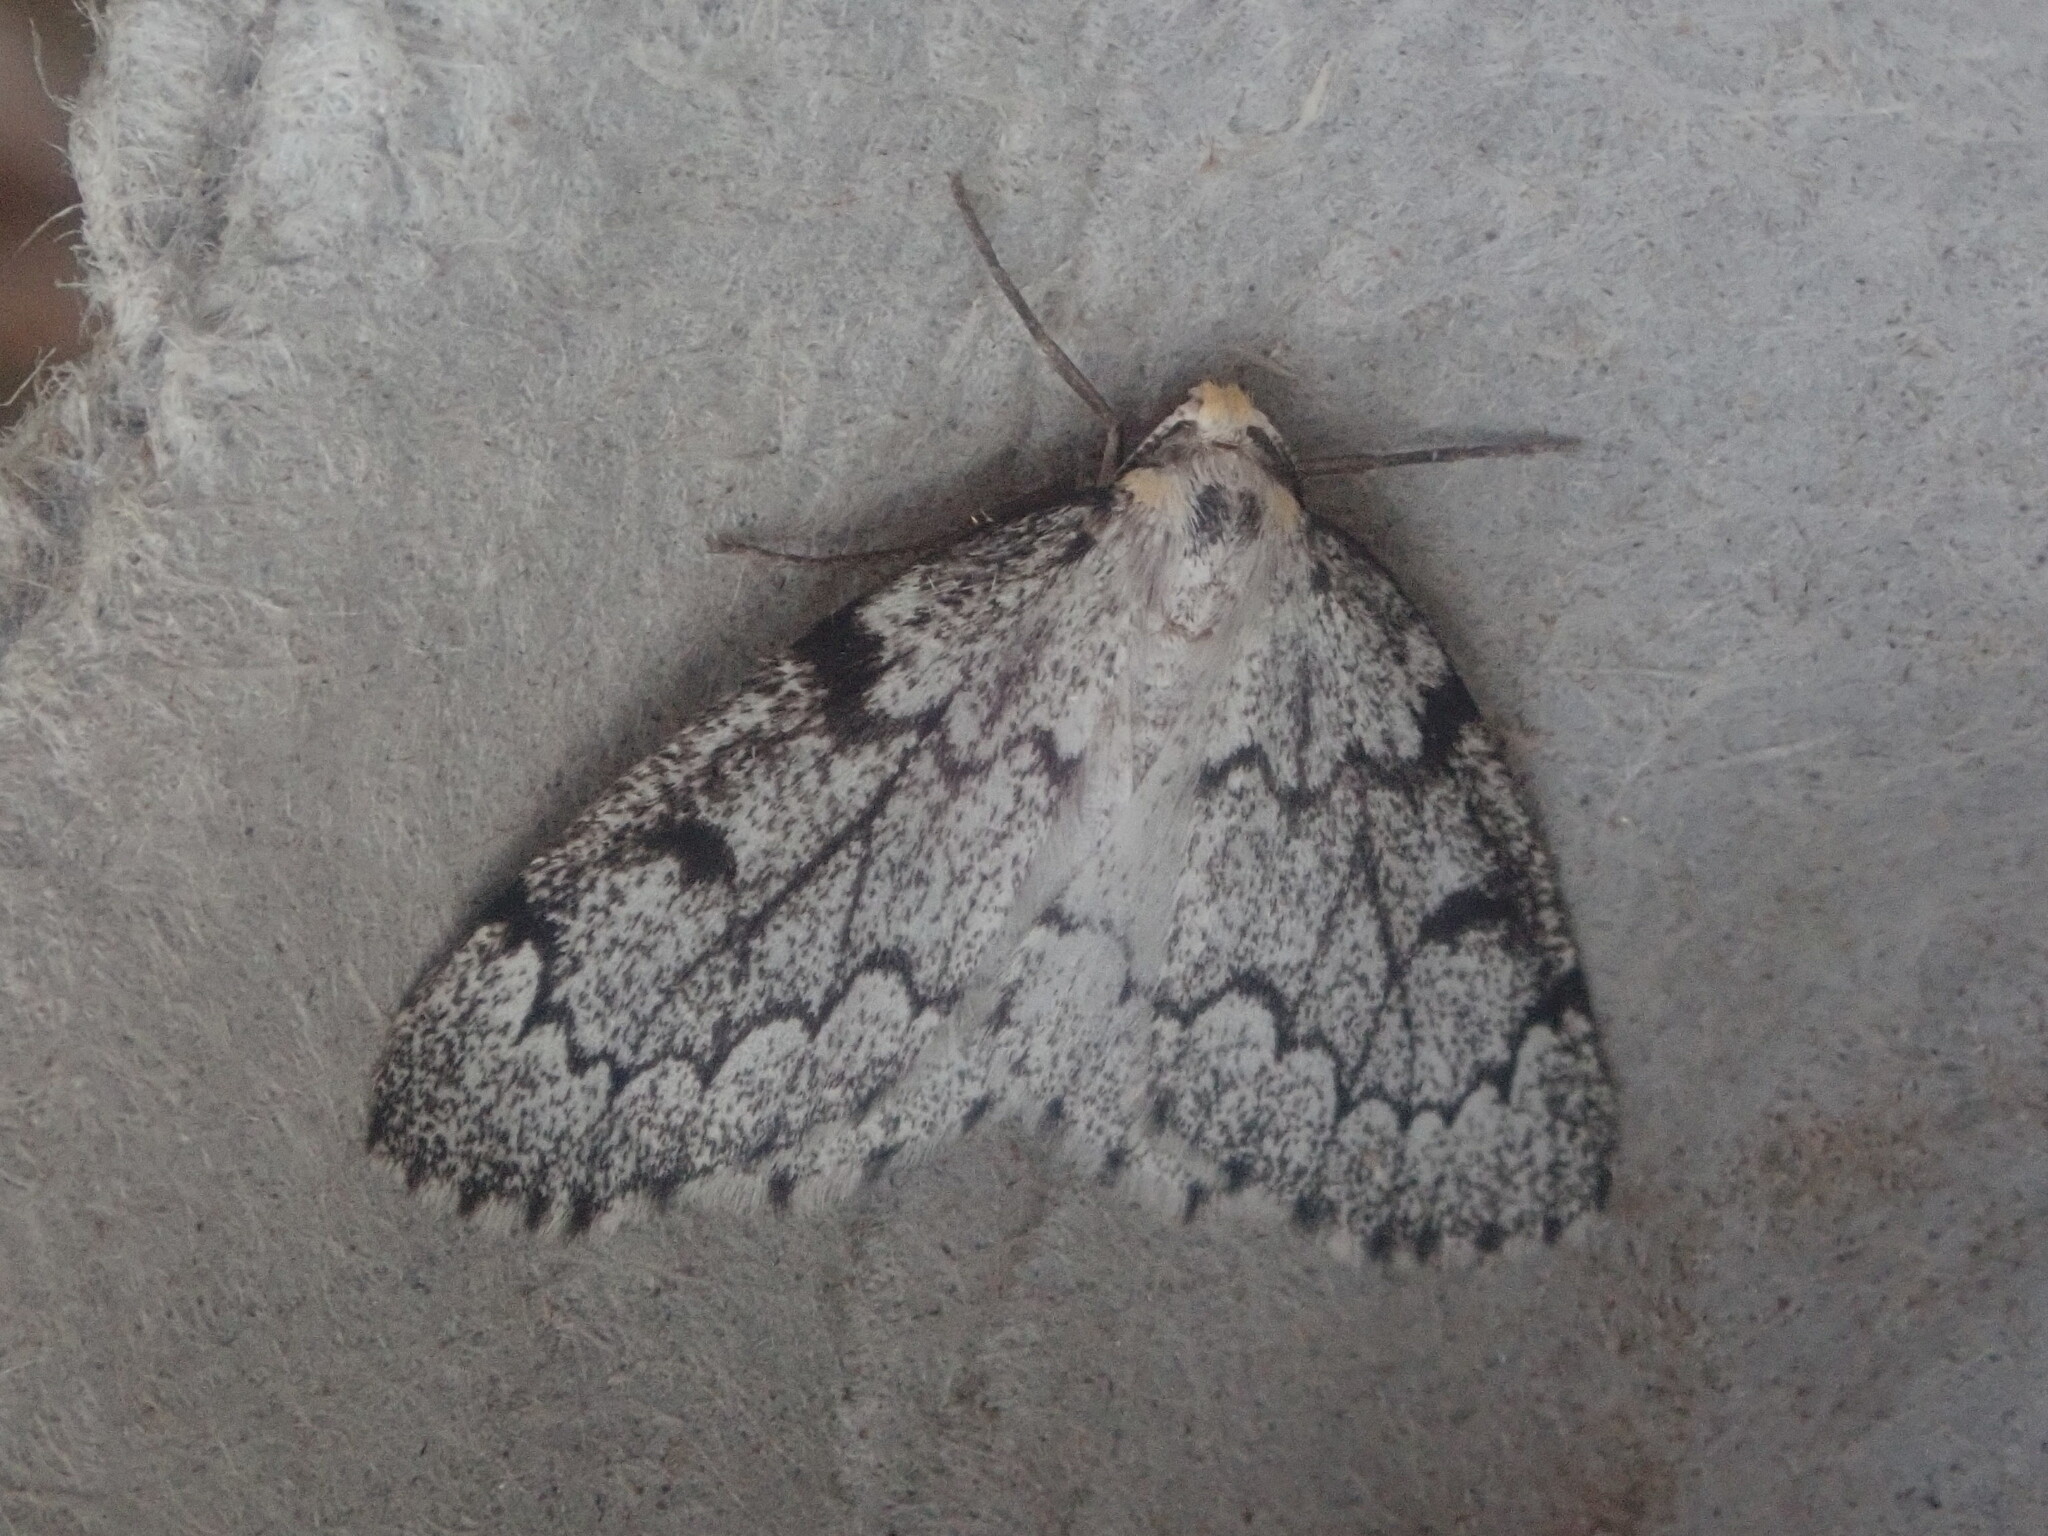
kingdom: Animalia
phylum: Arthropoda
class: Insecta
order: Lepidoptera
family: Geometridae
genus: Nepytia
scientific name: Nepytia canosaria
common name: False hemlock looper
